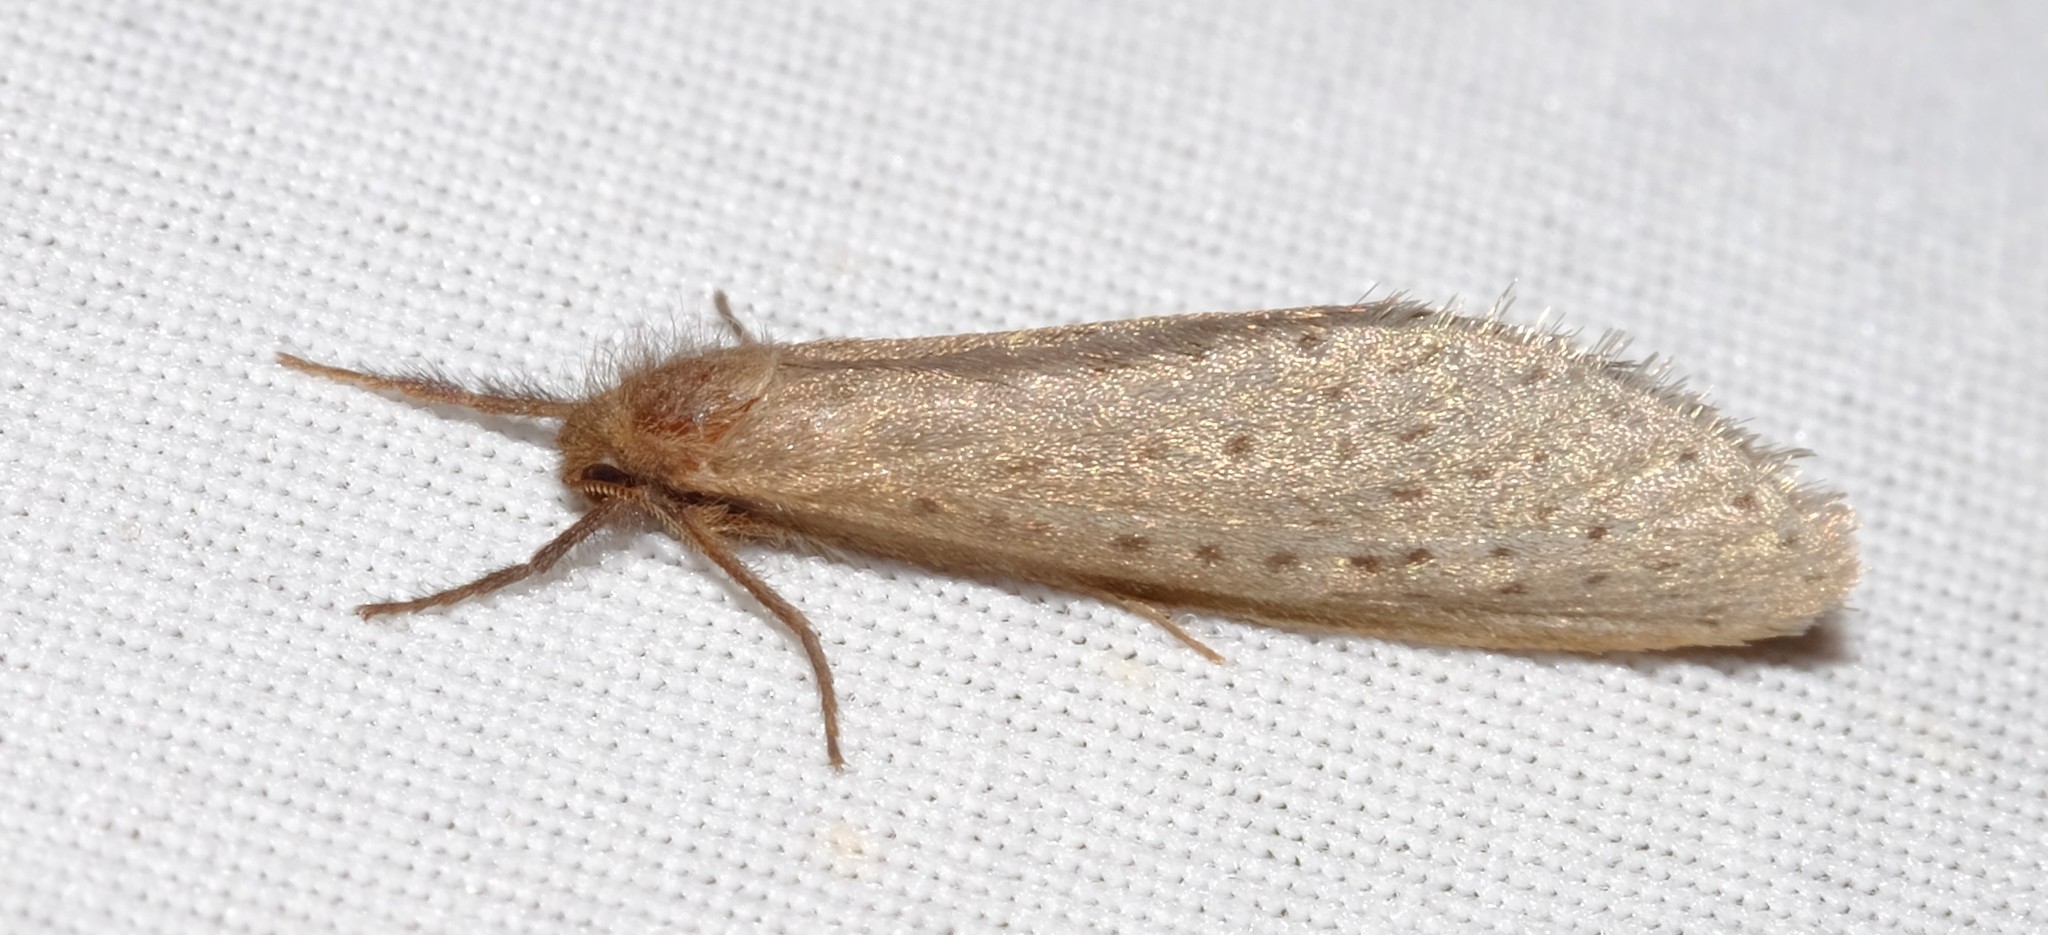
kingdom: Animalia
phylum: Arthropoda
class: Insecta
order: Lepidoptera
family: Hepialidae
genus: Fraus
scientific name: Fraus pteromela
